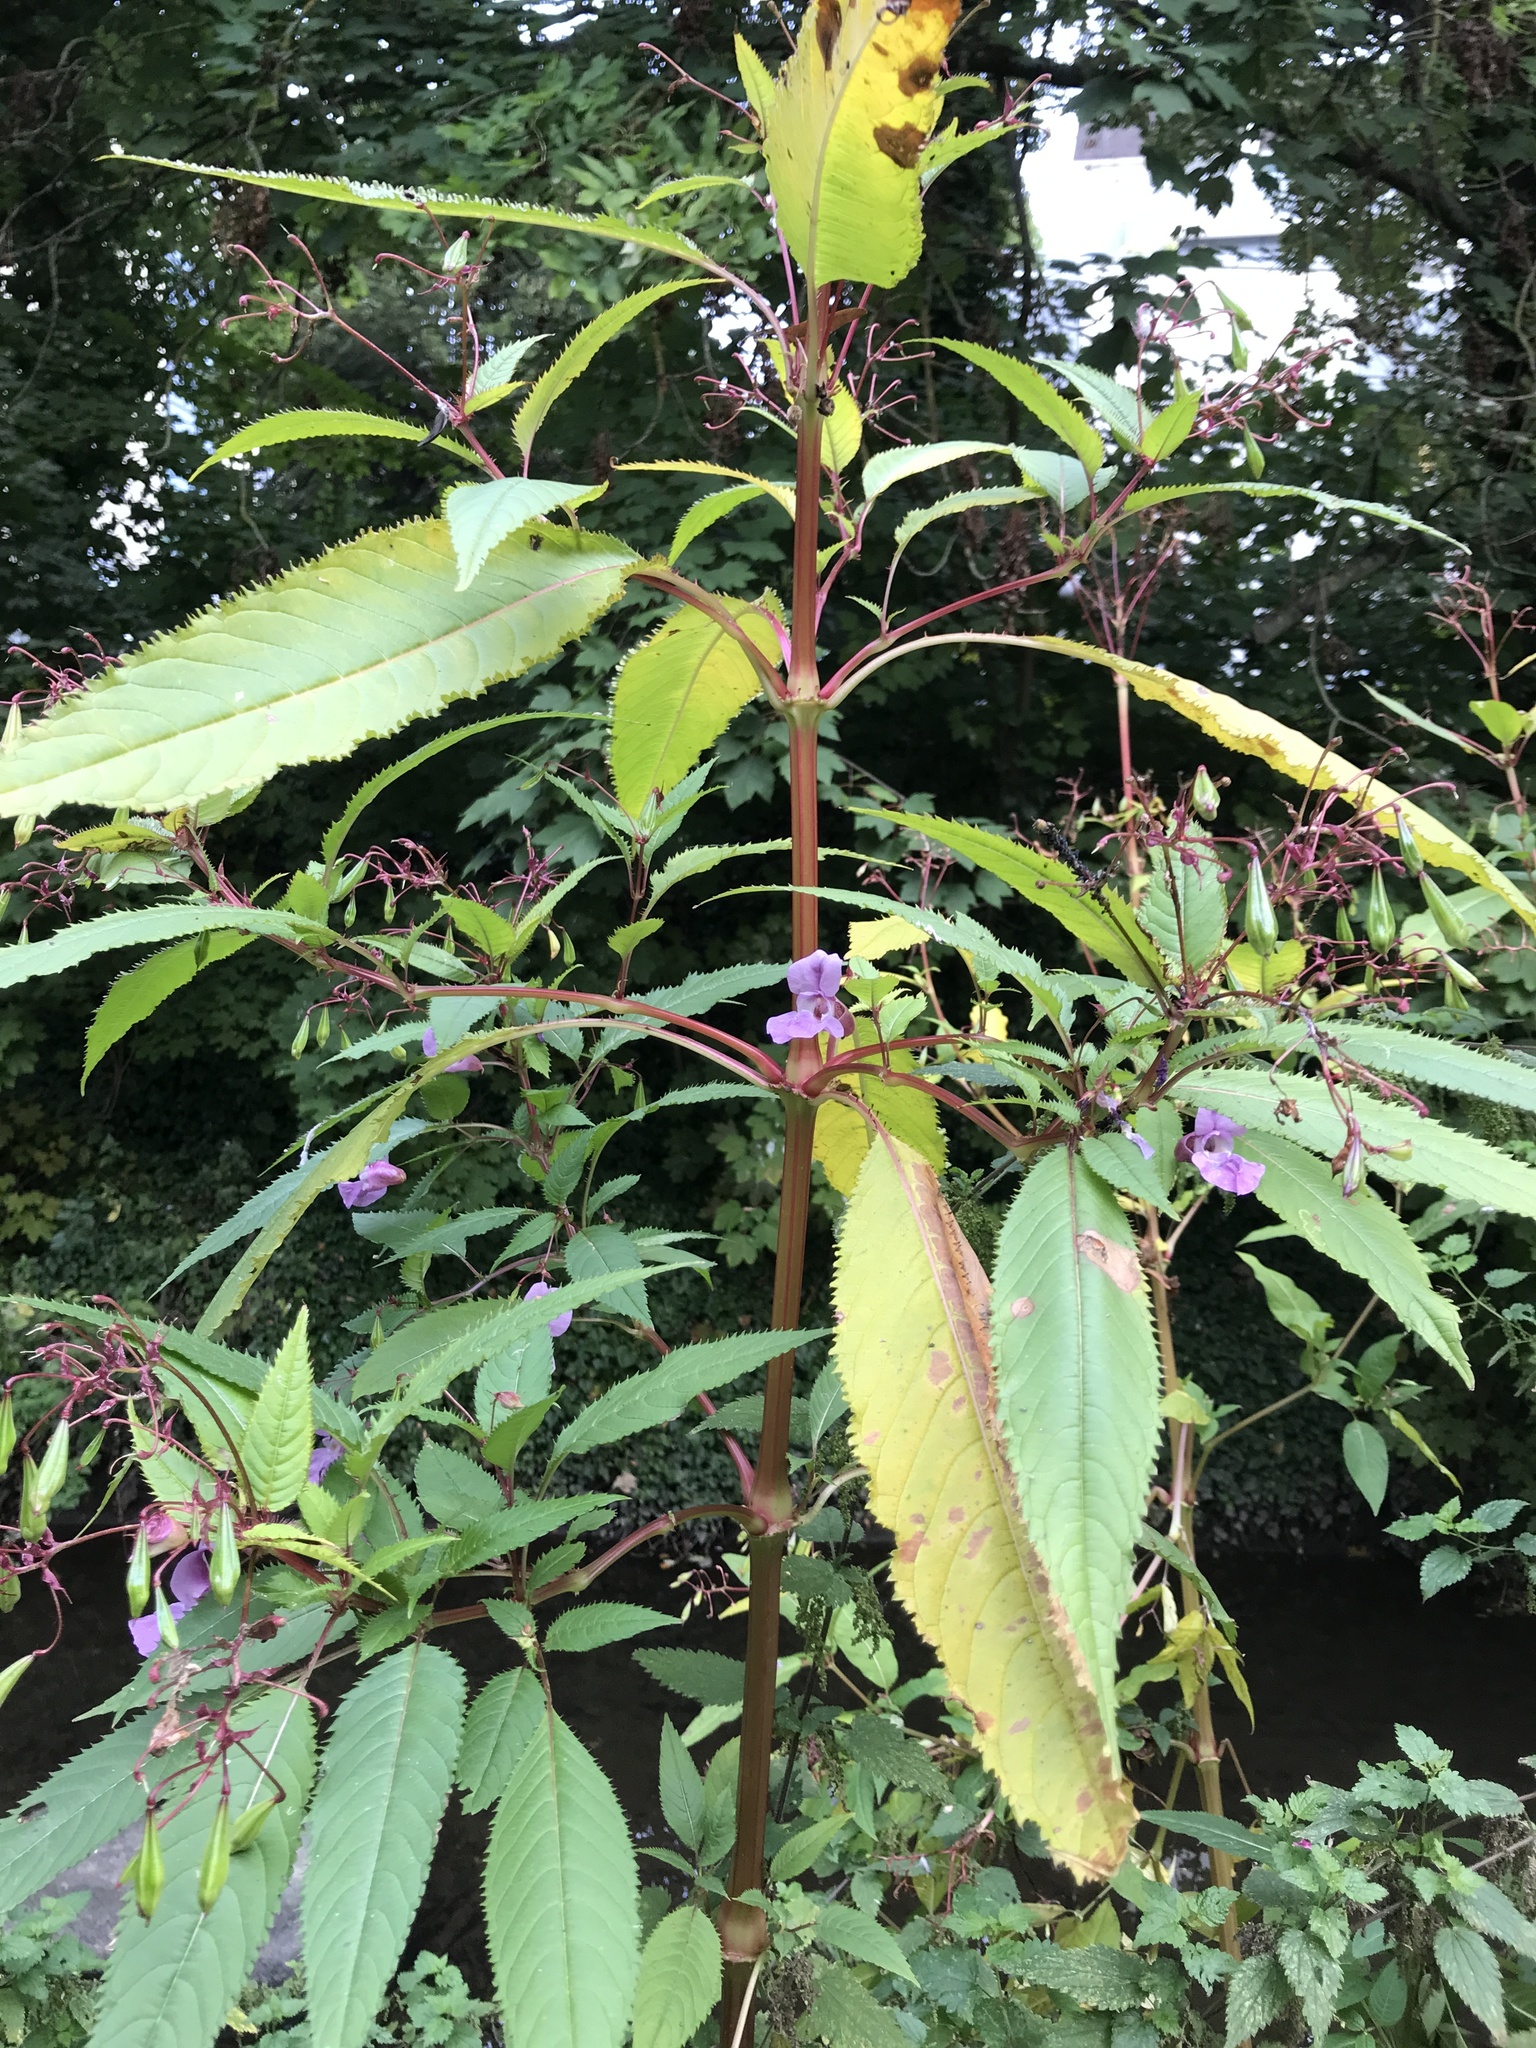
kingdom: Plantae
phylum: Tracheophyta
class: Magnoliopsida
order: Ericales
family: Balsaminaceae
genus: Impatiens
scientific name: Impatiens glandulifera
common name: Himalayan balsam
